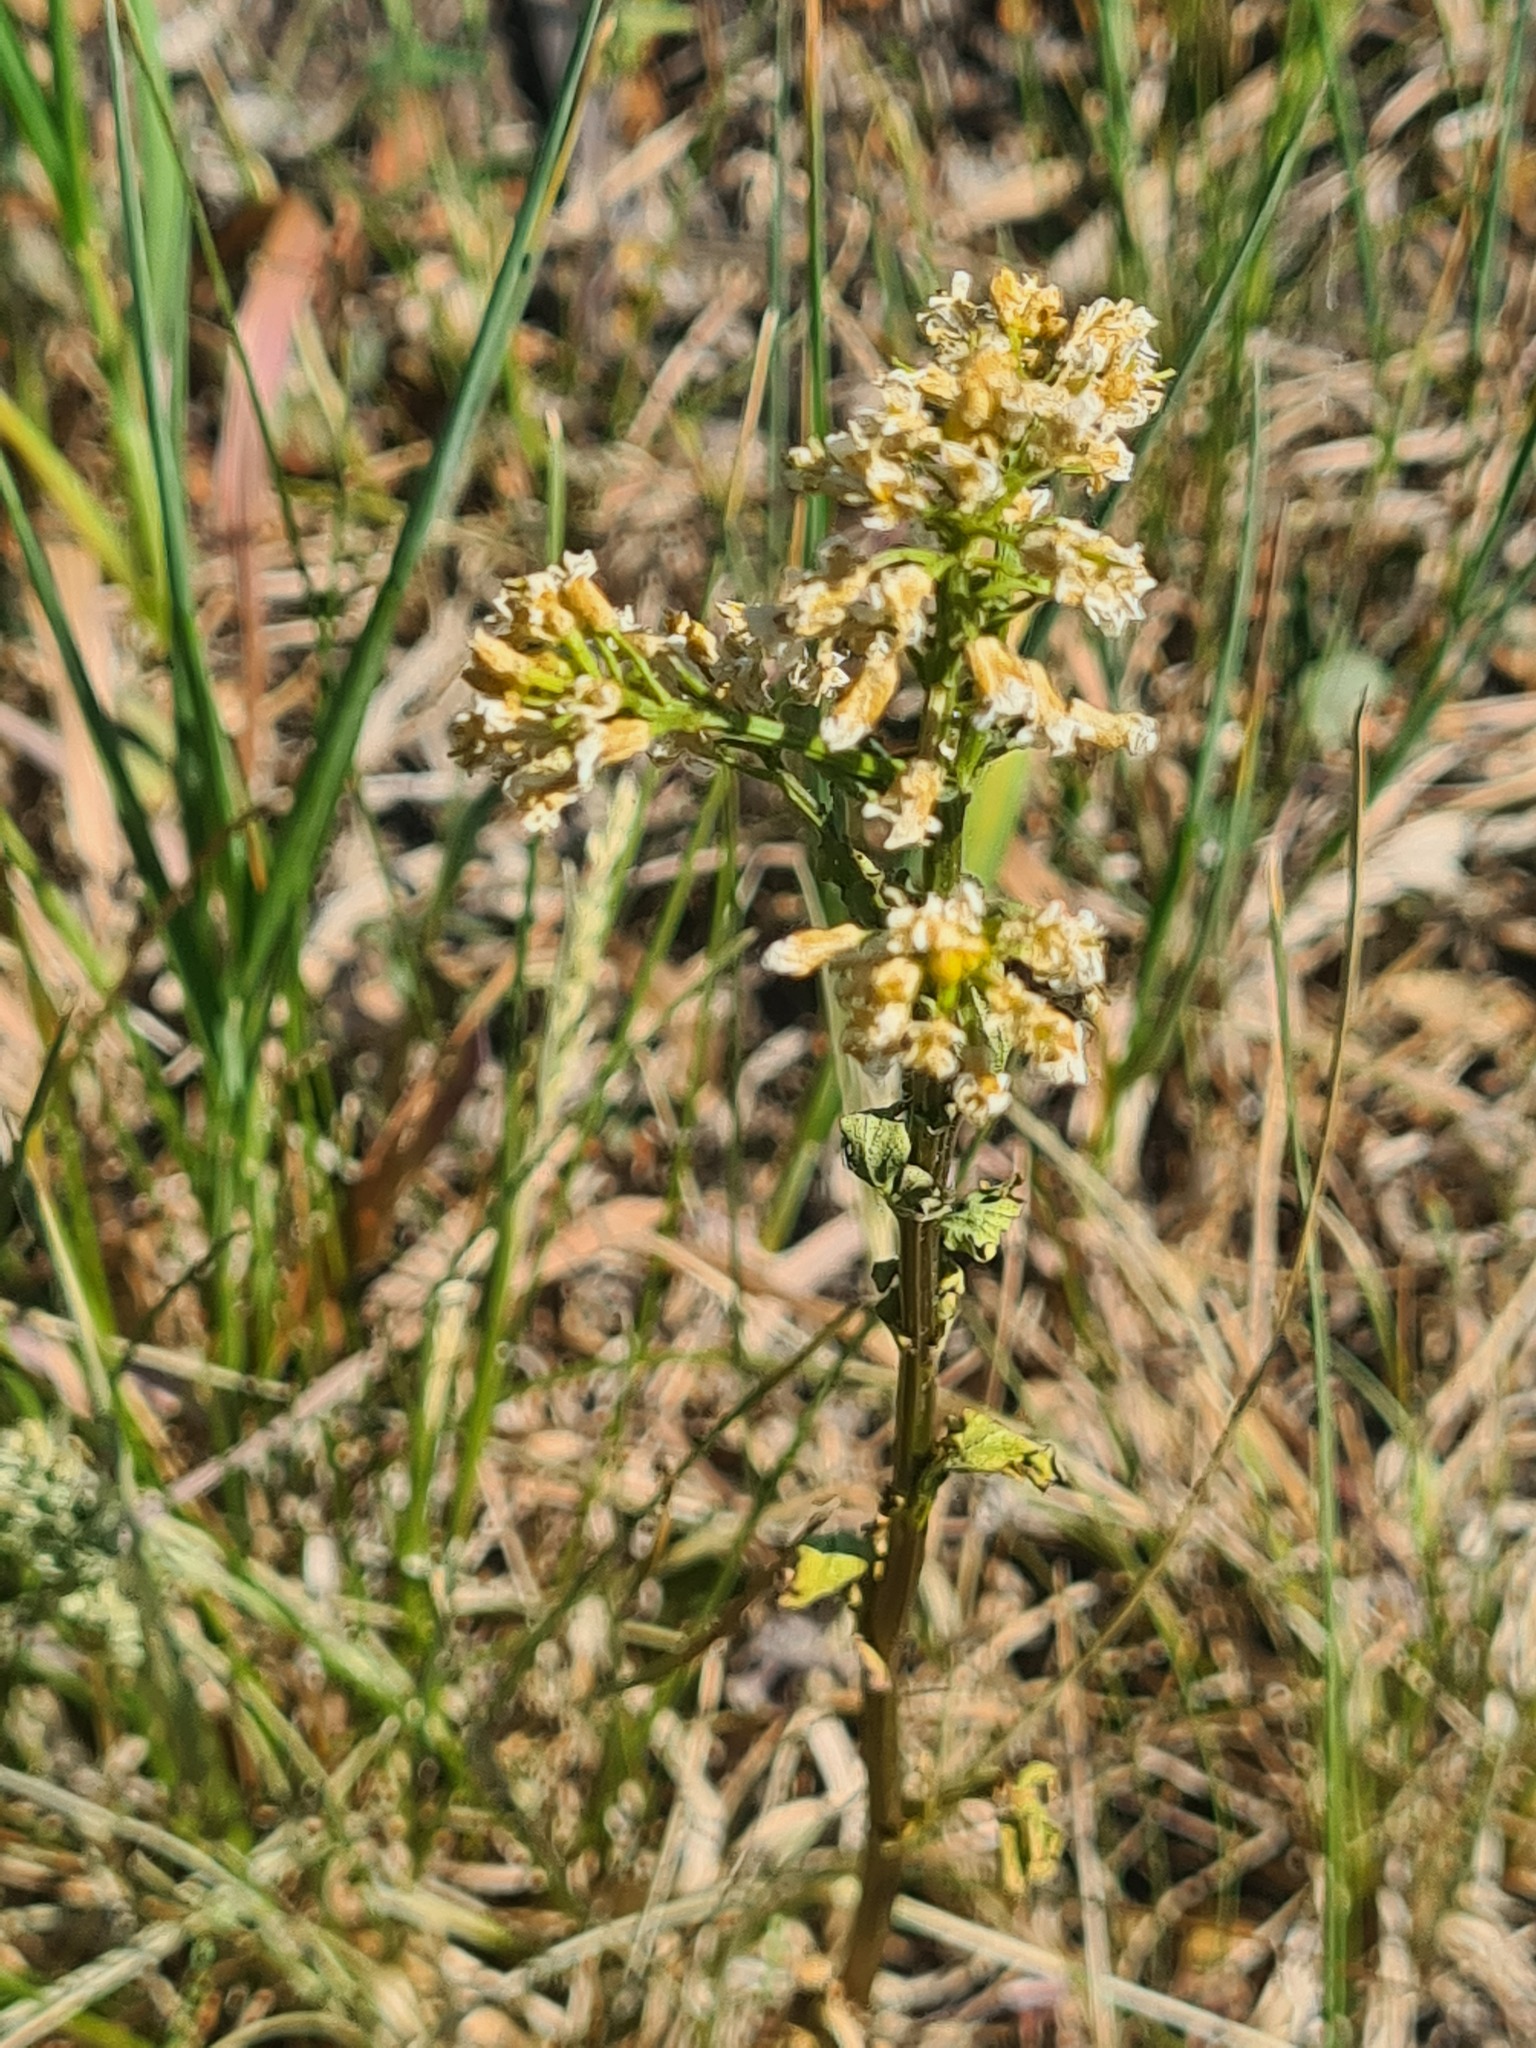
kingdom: Plantae
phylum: Tracheophyta
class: Magnoliopsida
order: Brassicales
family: Brassicaceae
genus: Barbarea
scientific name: Barbarea vulgaris
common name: Cressy-greens
